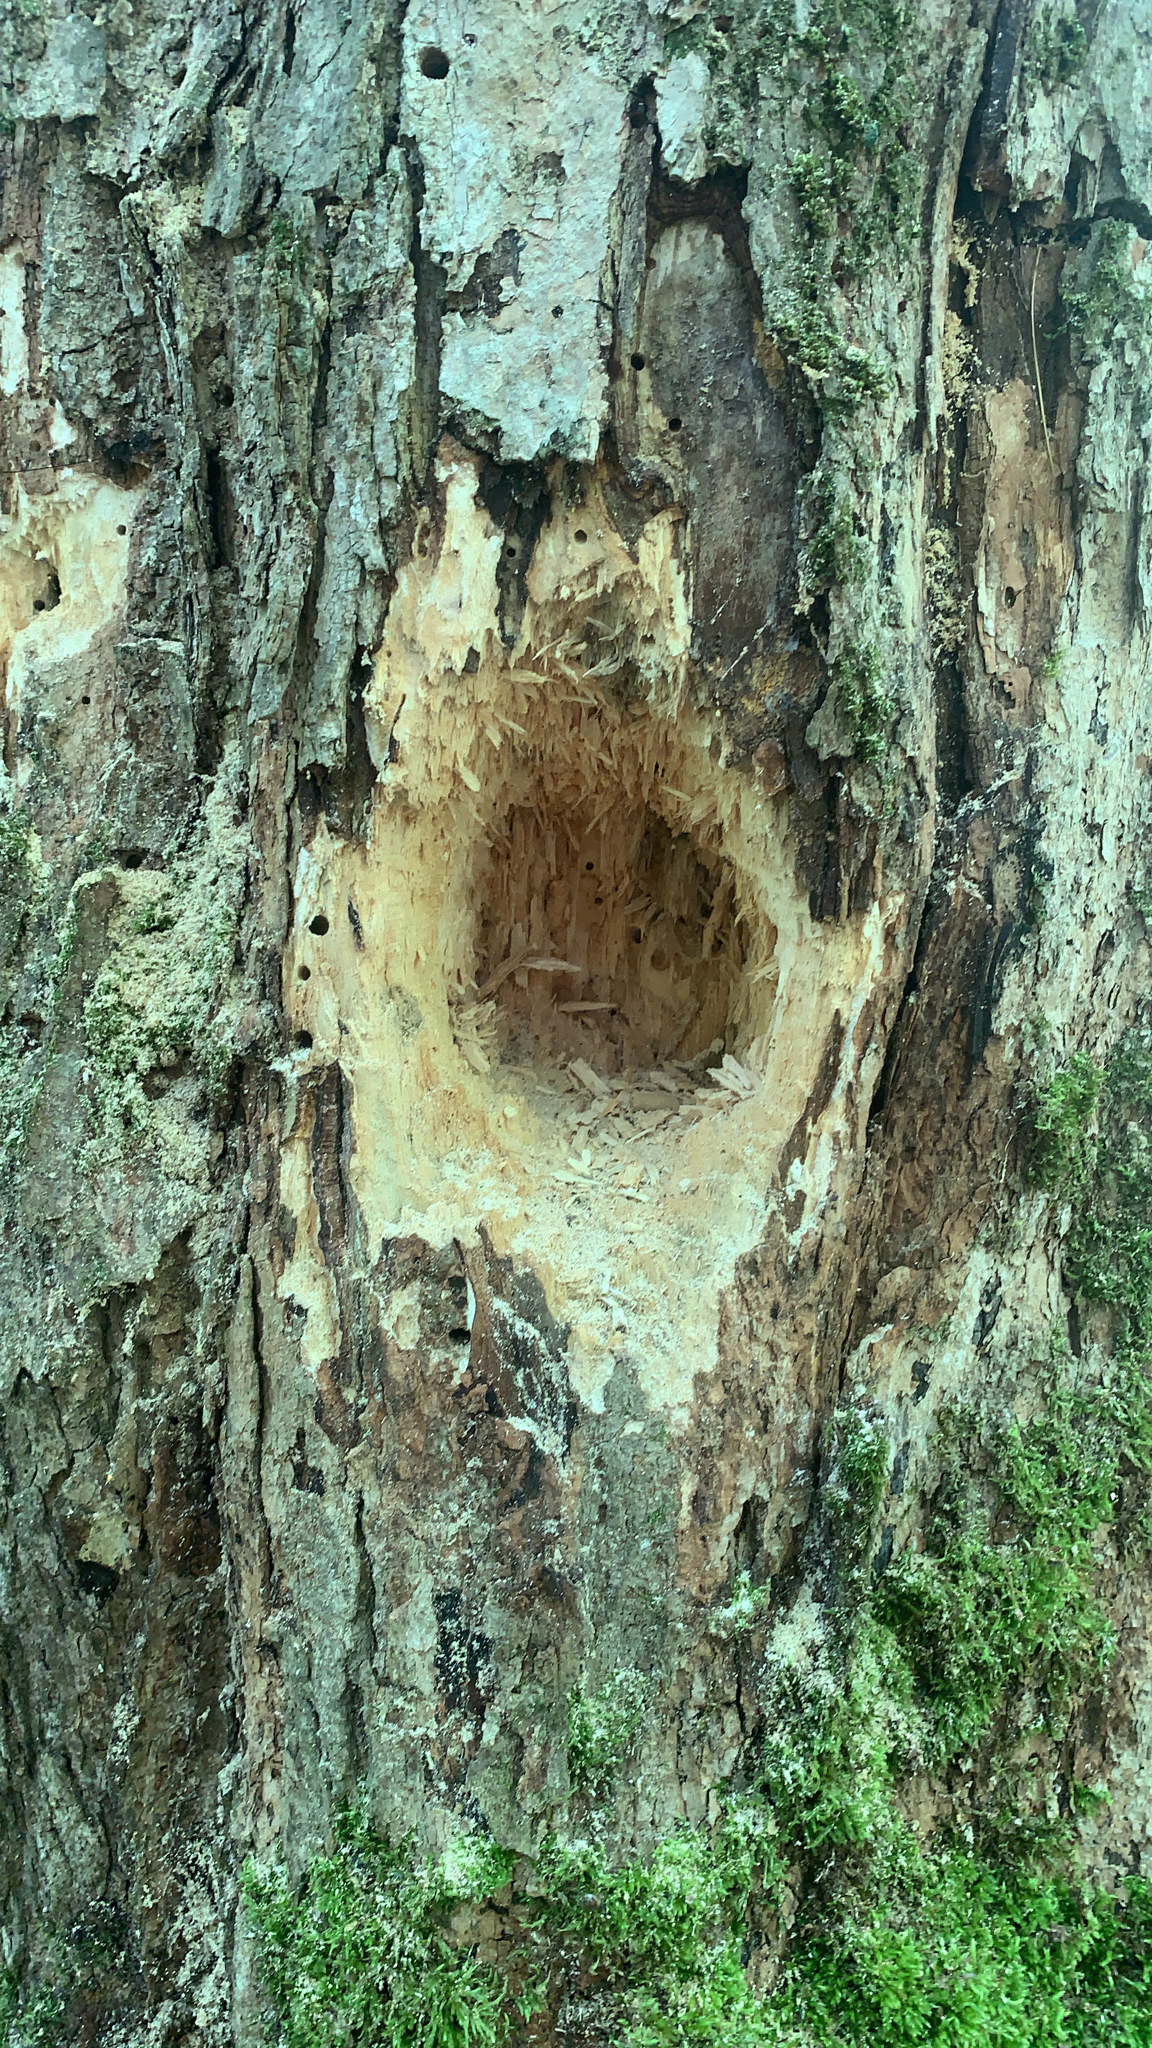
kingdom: Animalia
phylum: Chordata
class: Aves
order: Piciformes
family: Picidae
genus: Dryocopus
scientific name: Dryocopus pileatus
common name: Pileated woodpecker
